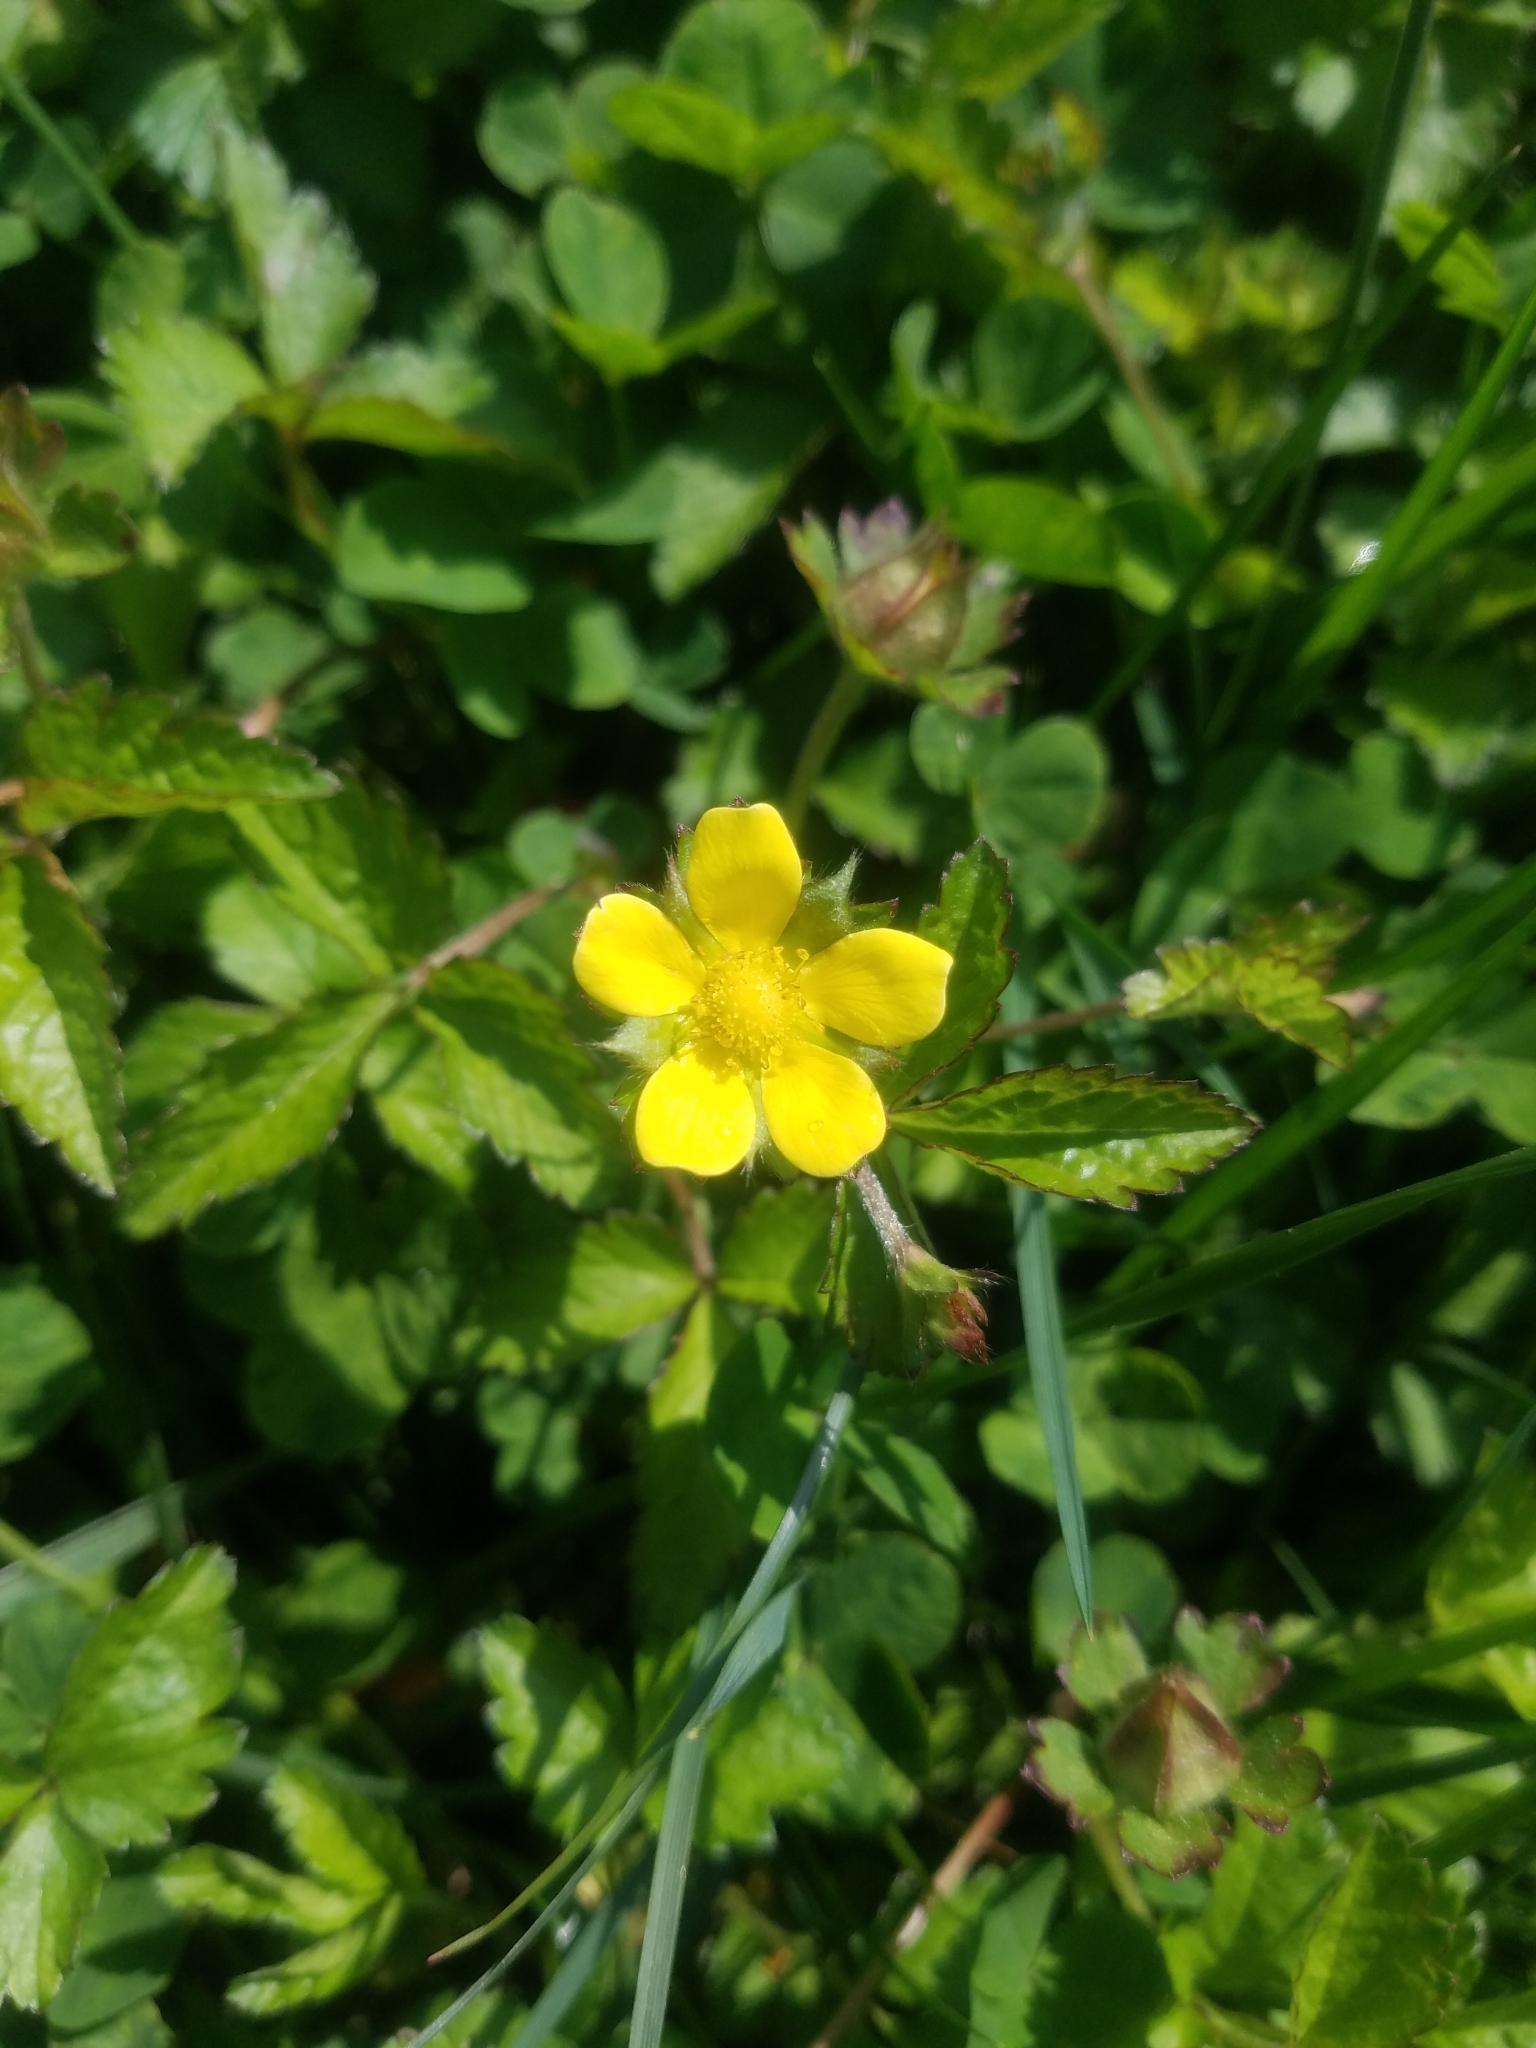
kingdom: Plantae
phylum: Tracheophyta
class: Magnoliopsida
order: Rosales
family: Rosaceae
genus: Potentilla
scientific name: Potentilla indica
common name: Yellow-flowered strawberry
